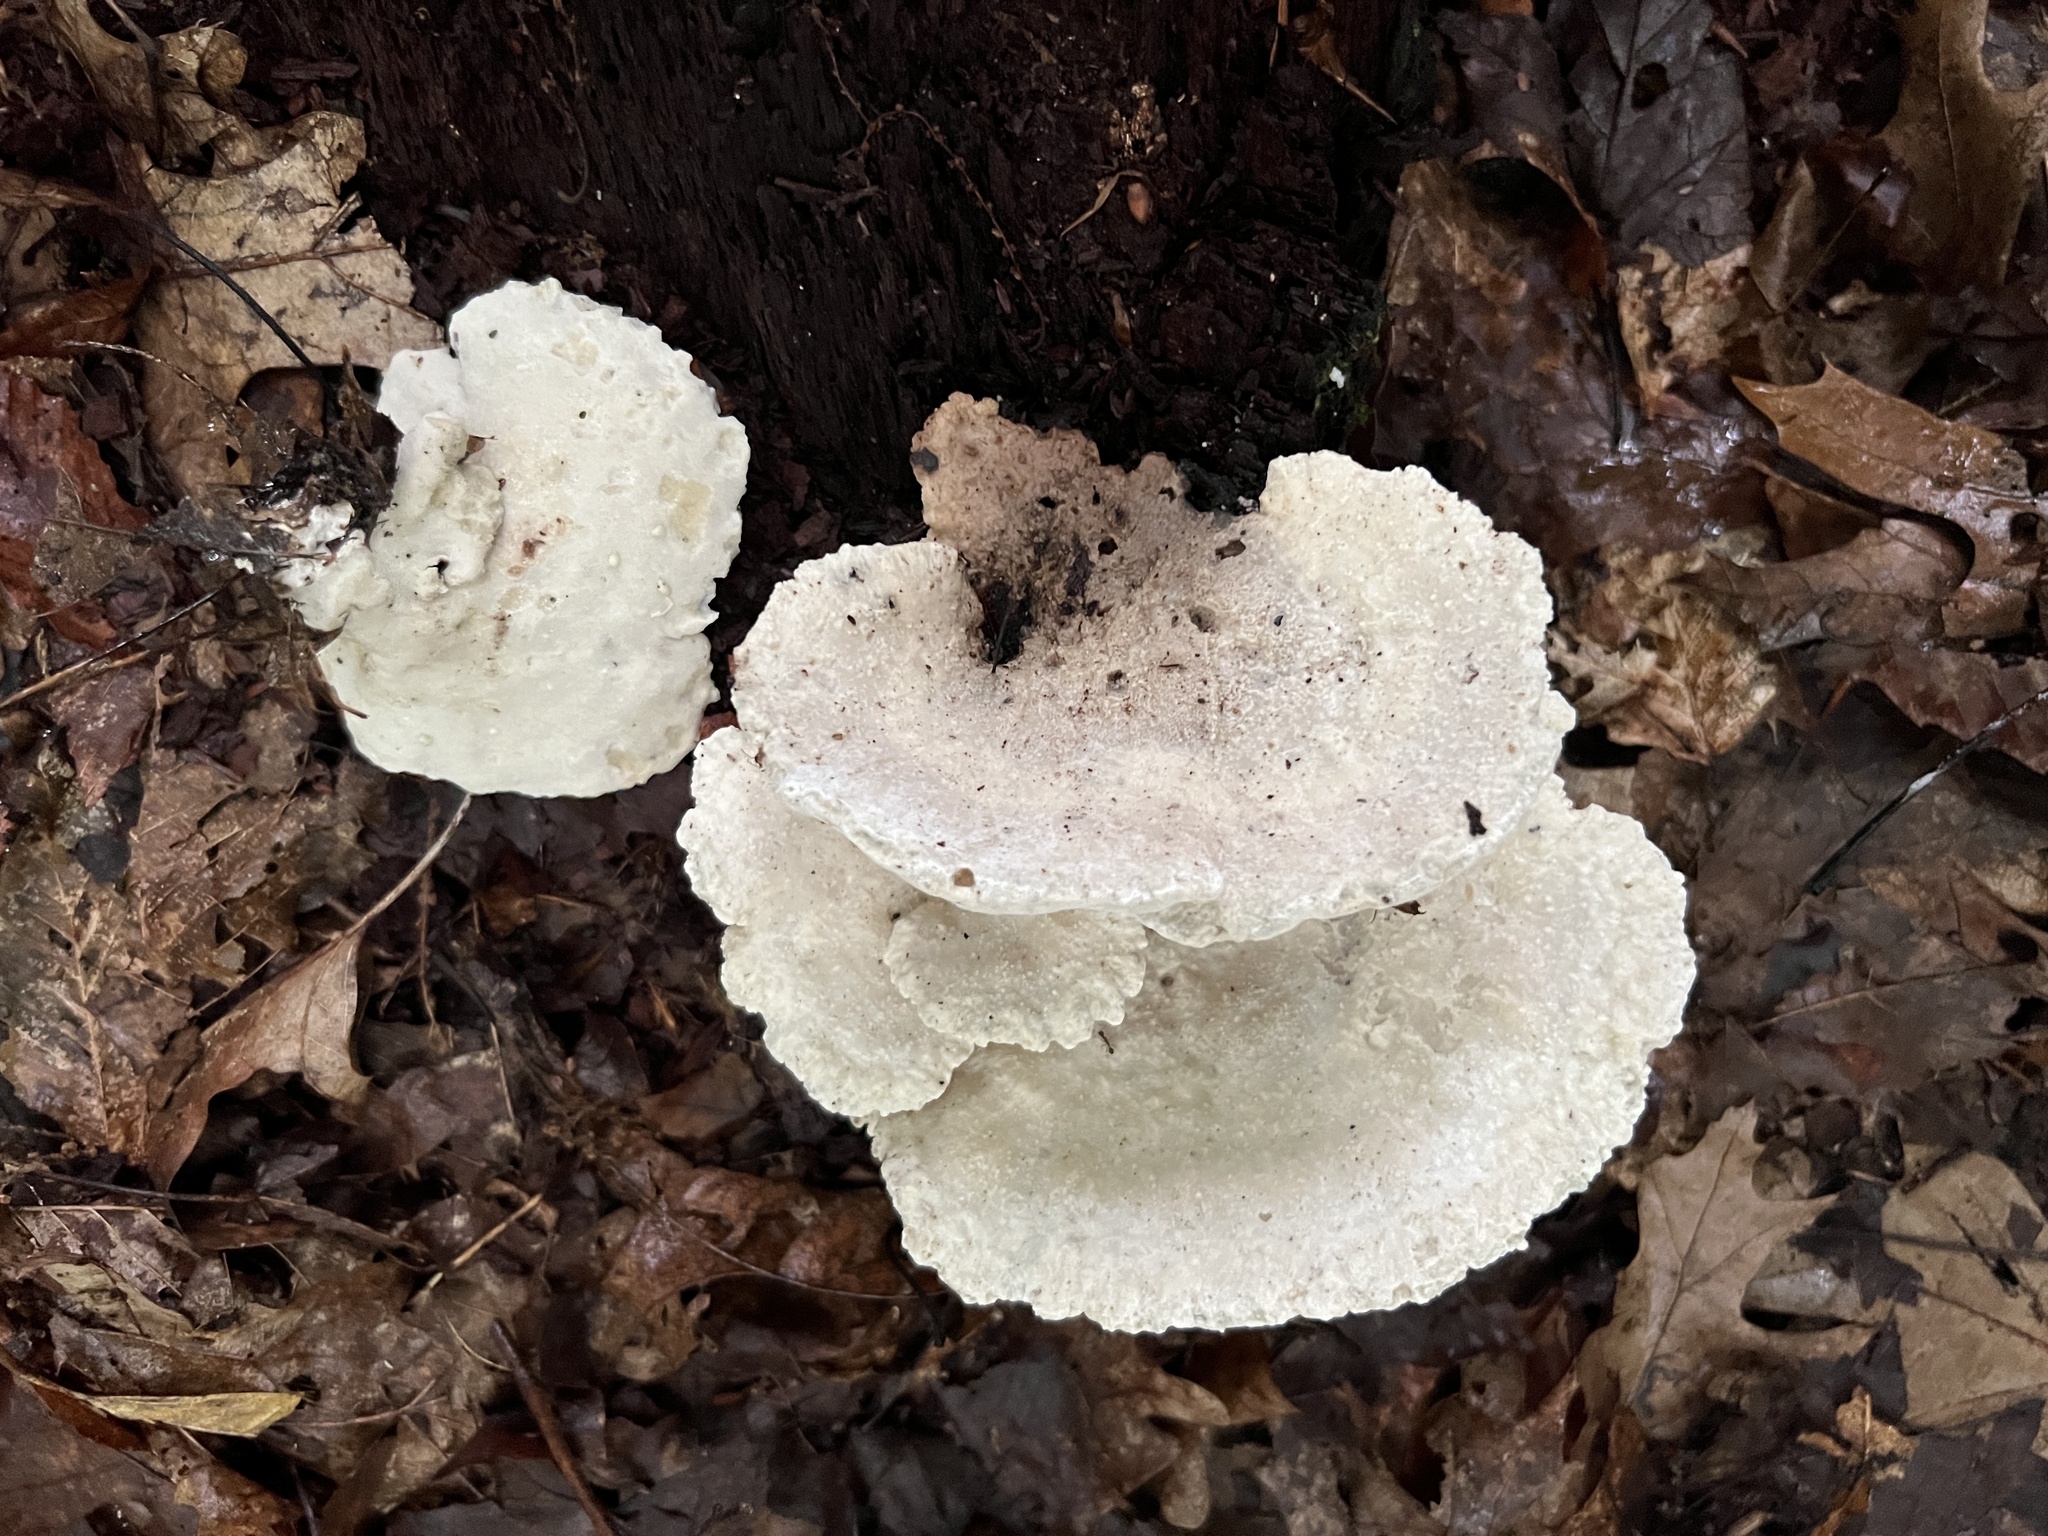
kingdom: Fungi
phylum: Basidiomycota
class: Agaricomycetes
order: Polyporales
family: Fomitopsidaceae
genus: Niveoporofomes
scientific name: Niveoporofomes spraguei
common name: Green cheese polypore
